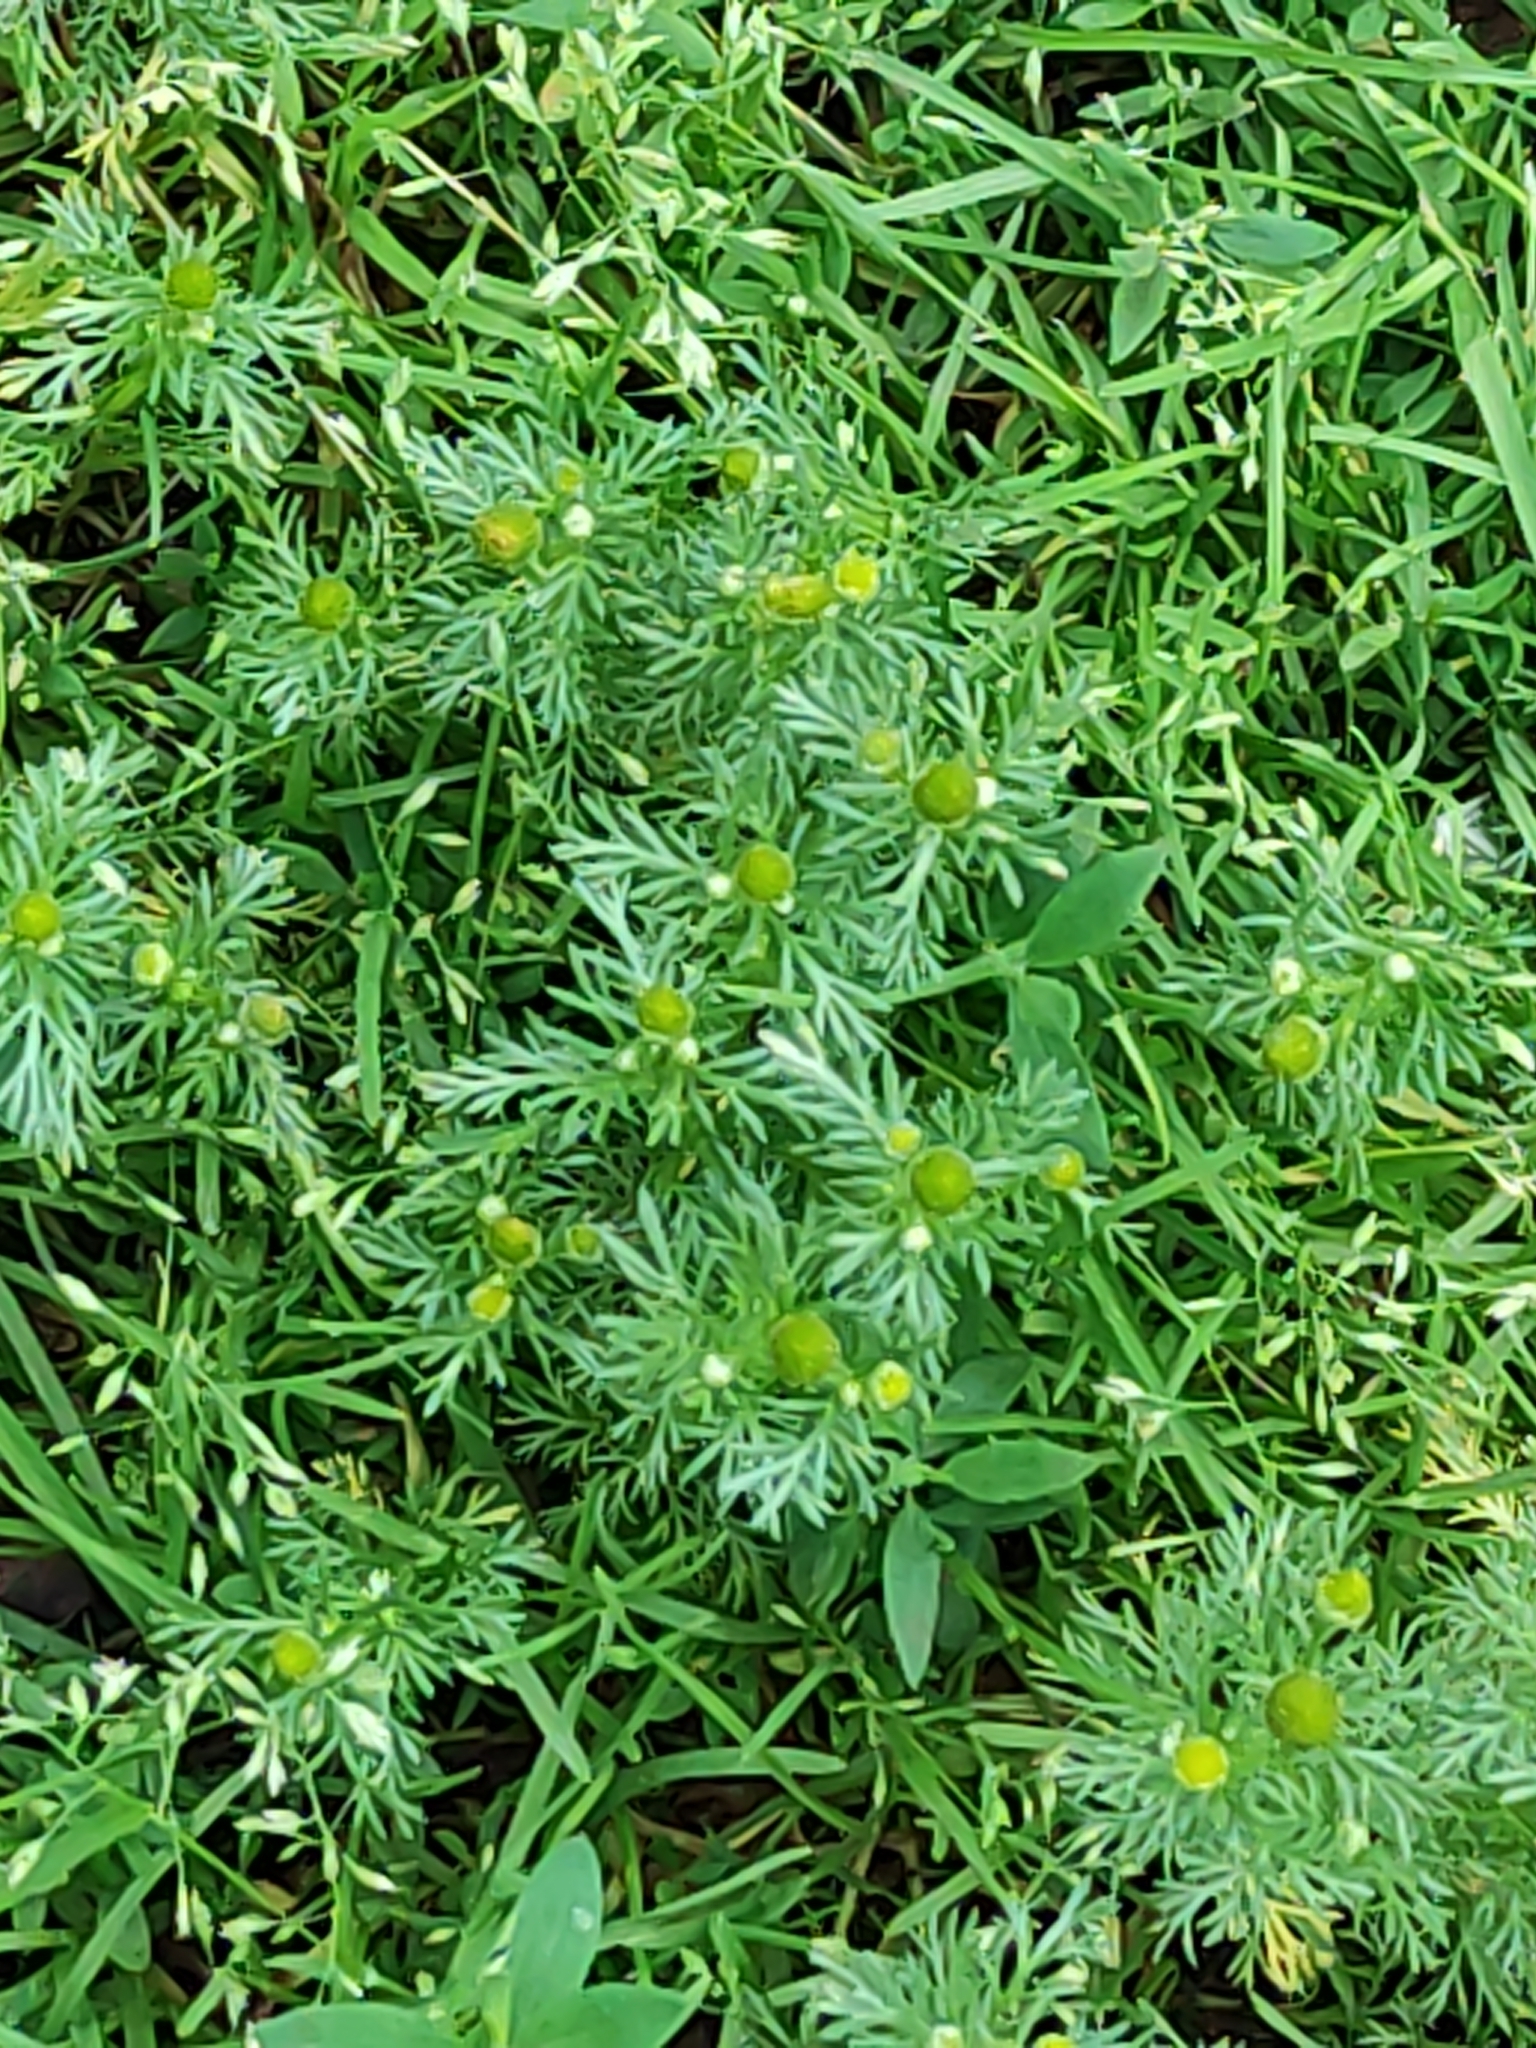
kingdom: Plantae
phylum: Tracheophyta
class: Magnoliopsida
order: Asterales
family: Asteraceae
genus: Matricaria
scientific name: Matricaria discoidea
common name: Disc mayweed
